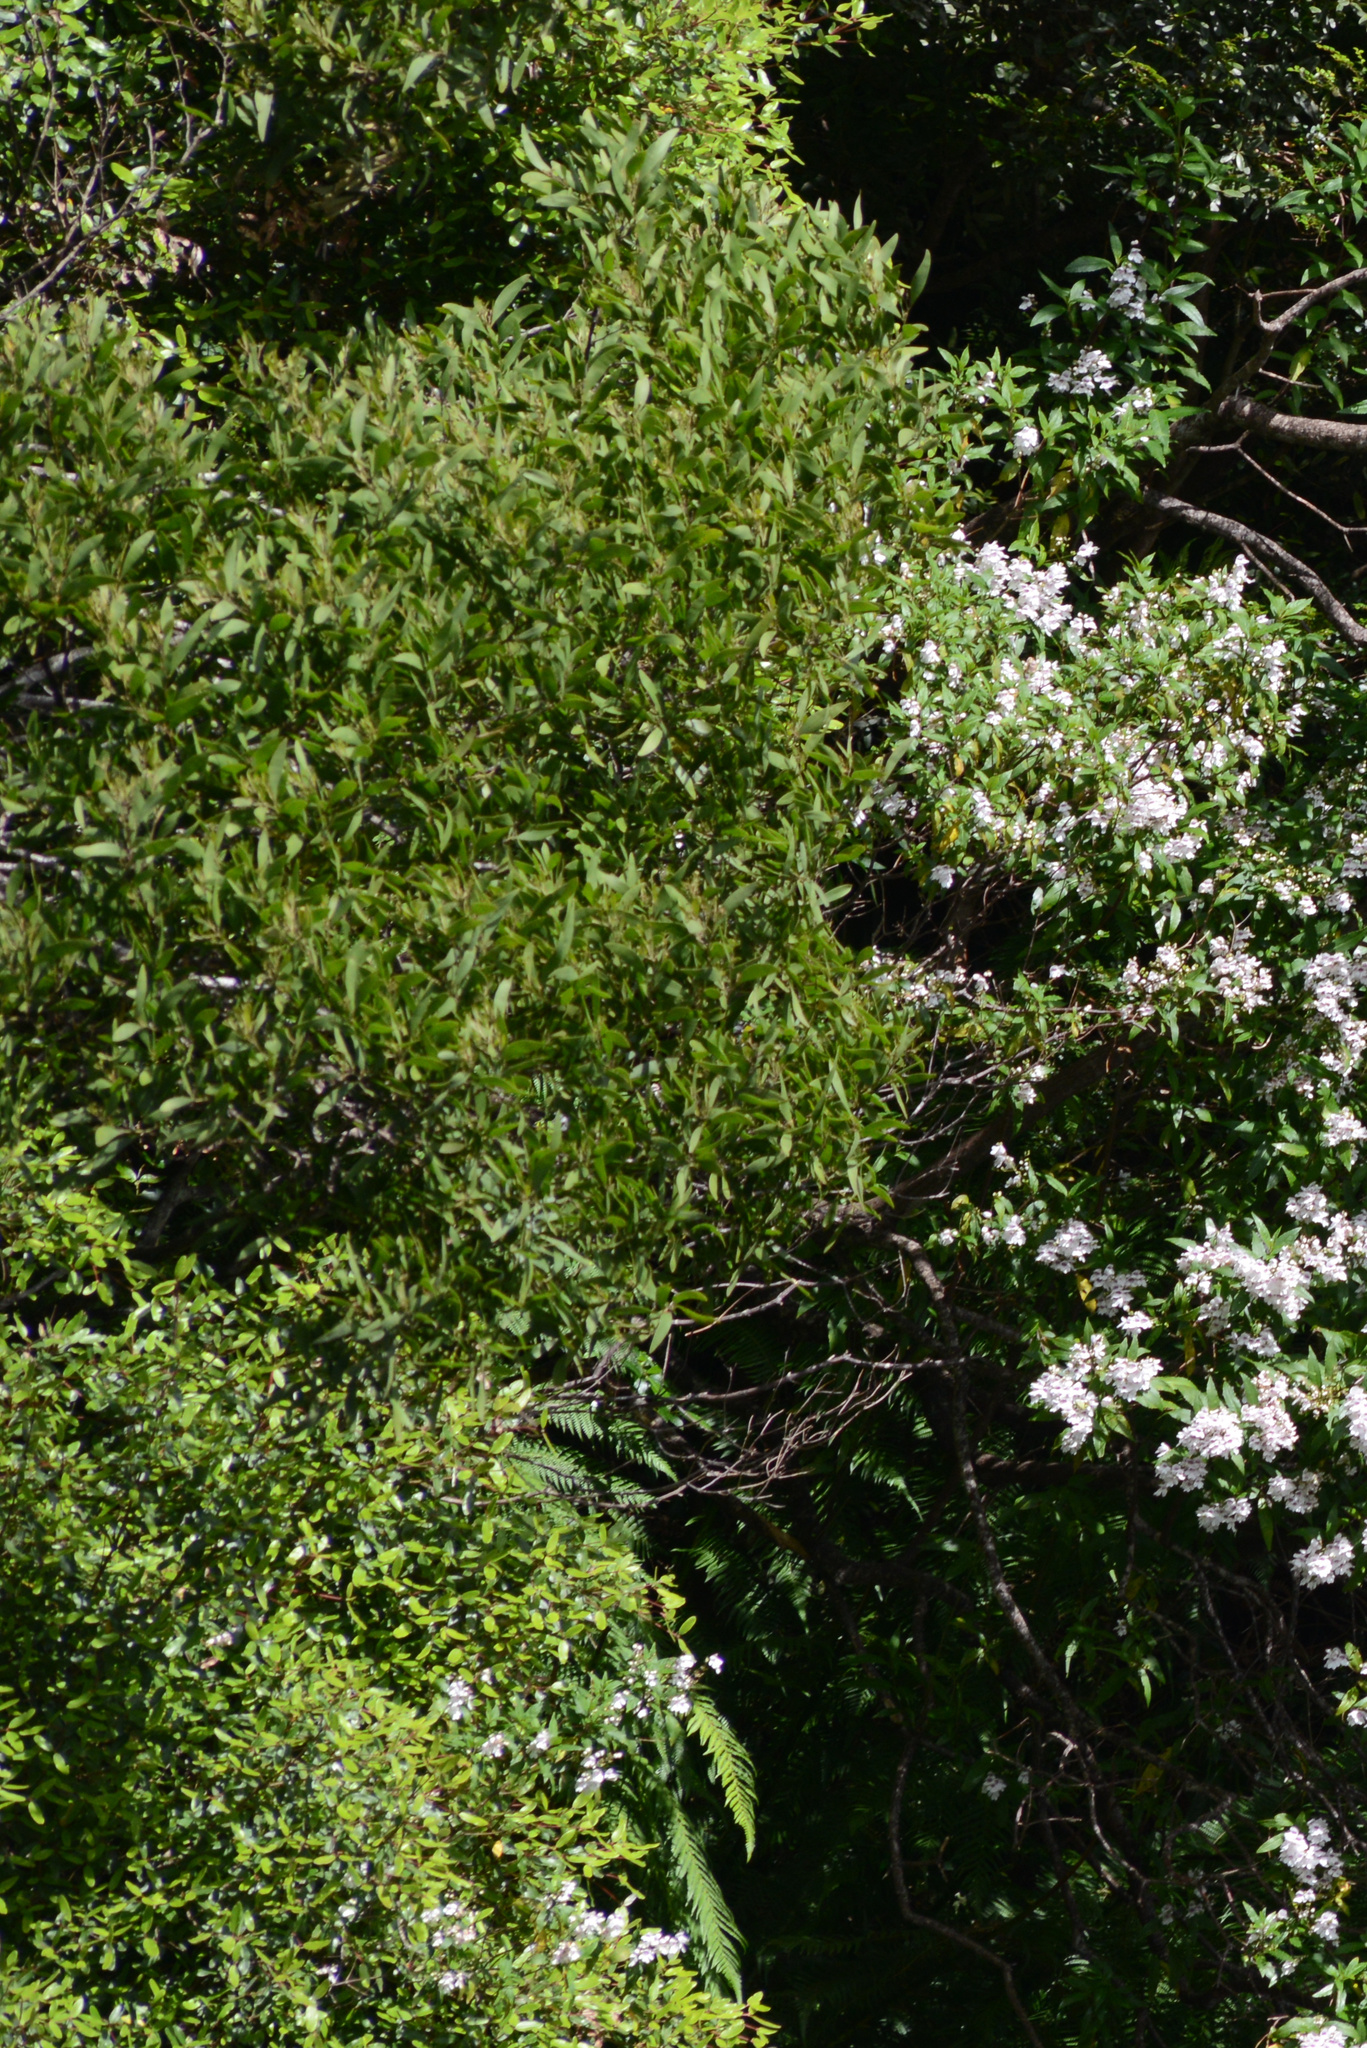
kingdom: Plantae
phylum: Tracheophyta
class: Magnoliopsida
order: Fabales
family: Fabaceae
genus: Acacia
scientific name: Acacia melanoxylon
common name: Blackwood
